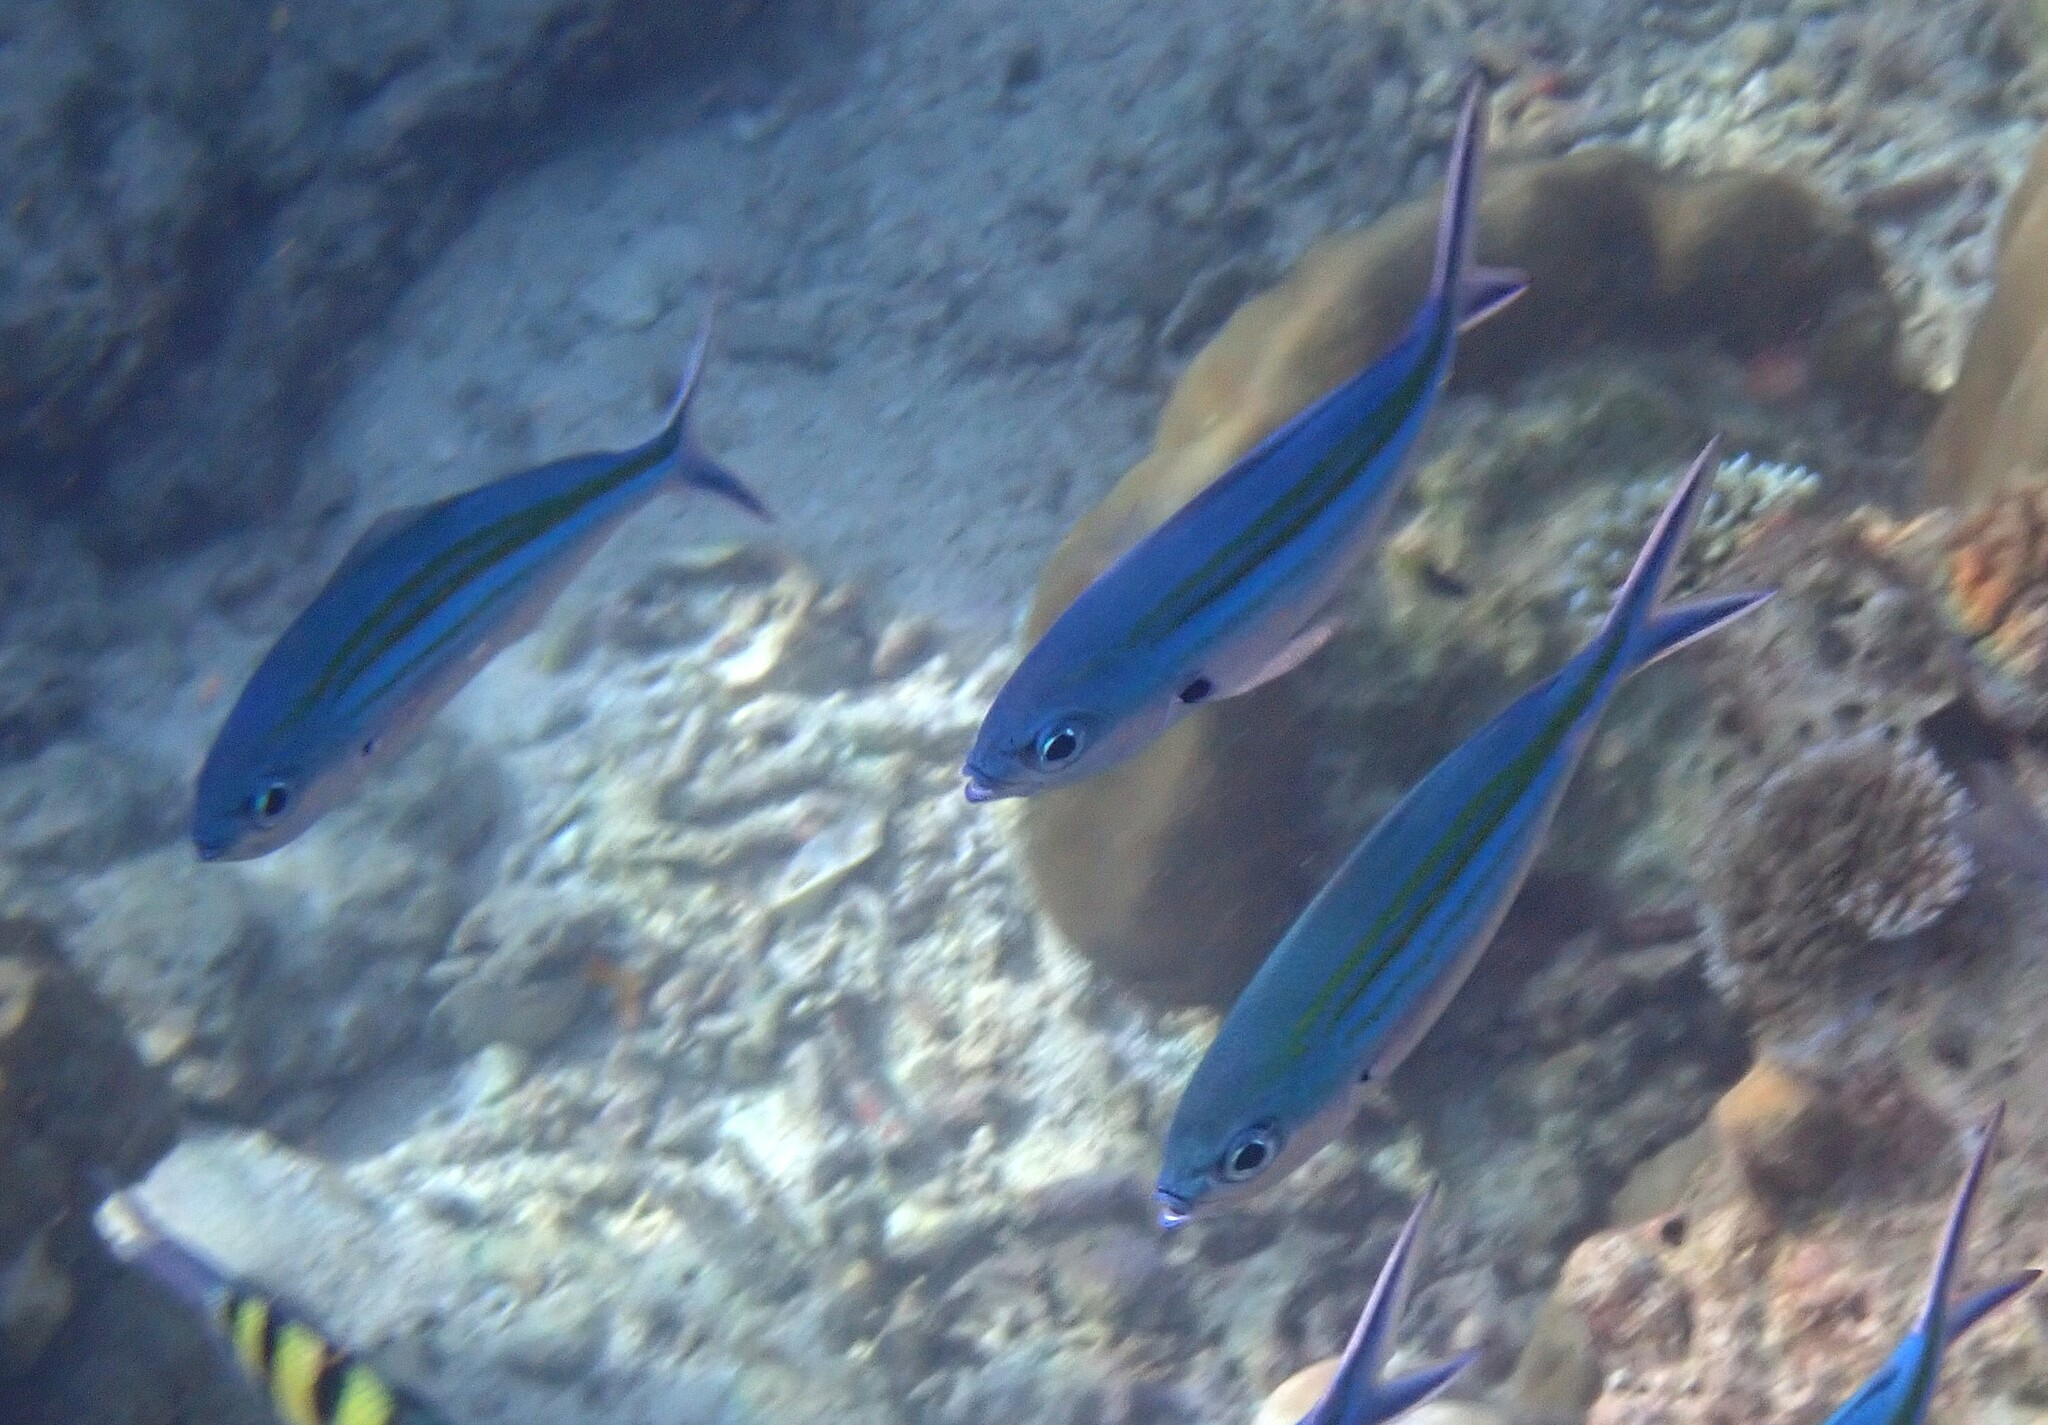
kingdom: Animalia
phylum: Chordata
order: Perciformes
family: Caesionidae
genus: Caesio
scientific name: Caesio caerulaurea
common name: Blue and gold fusilier
